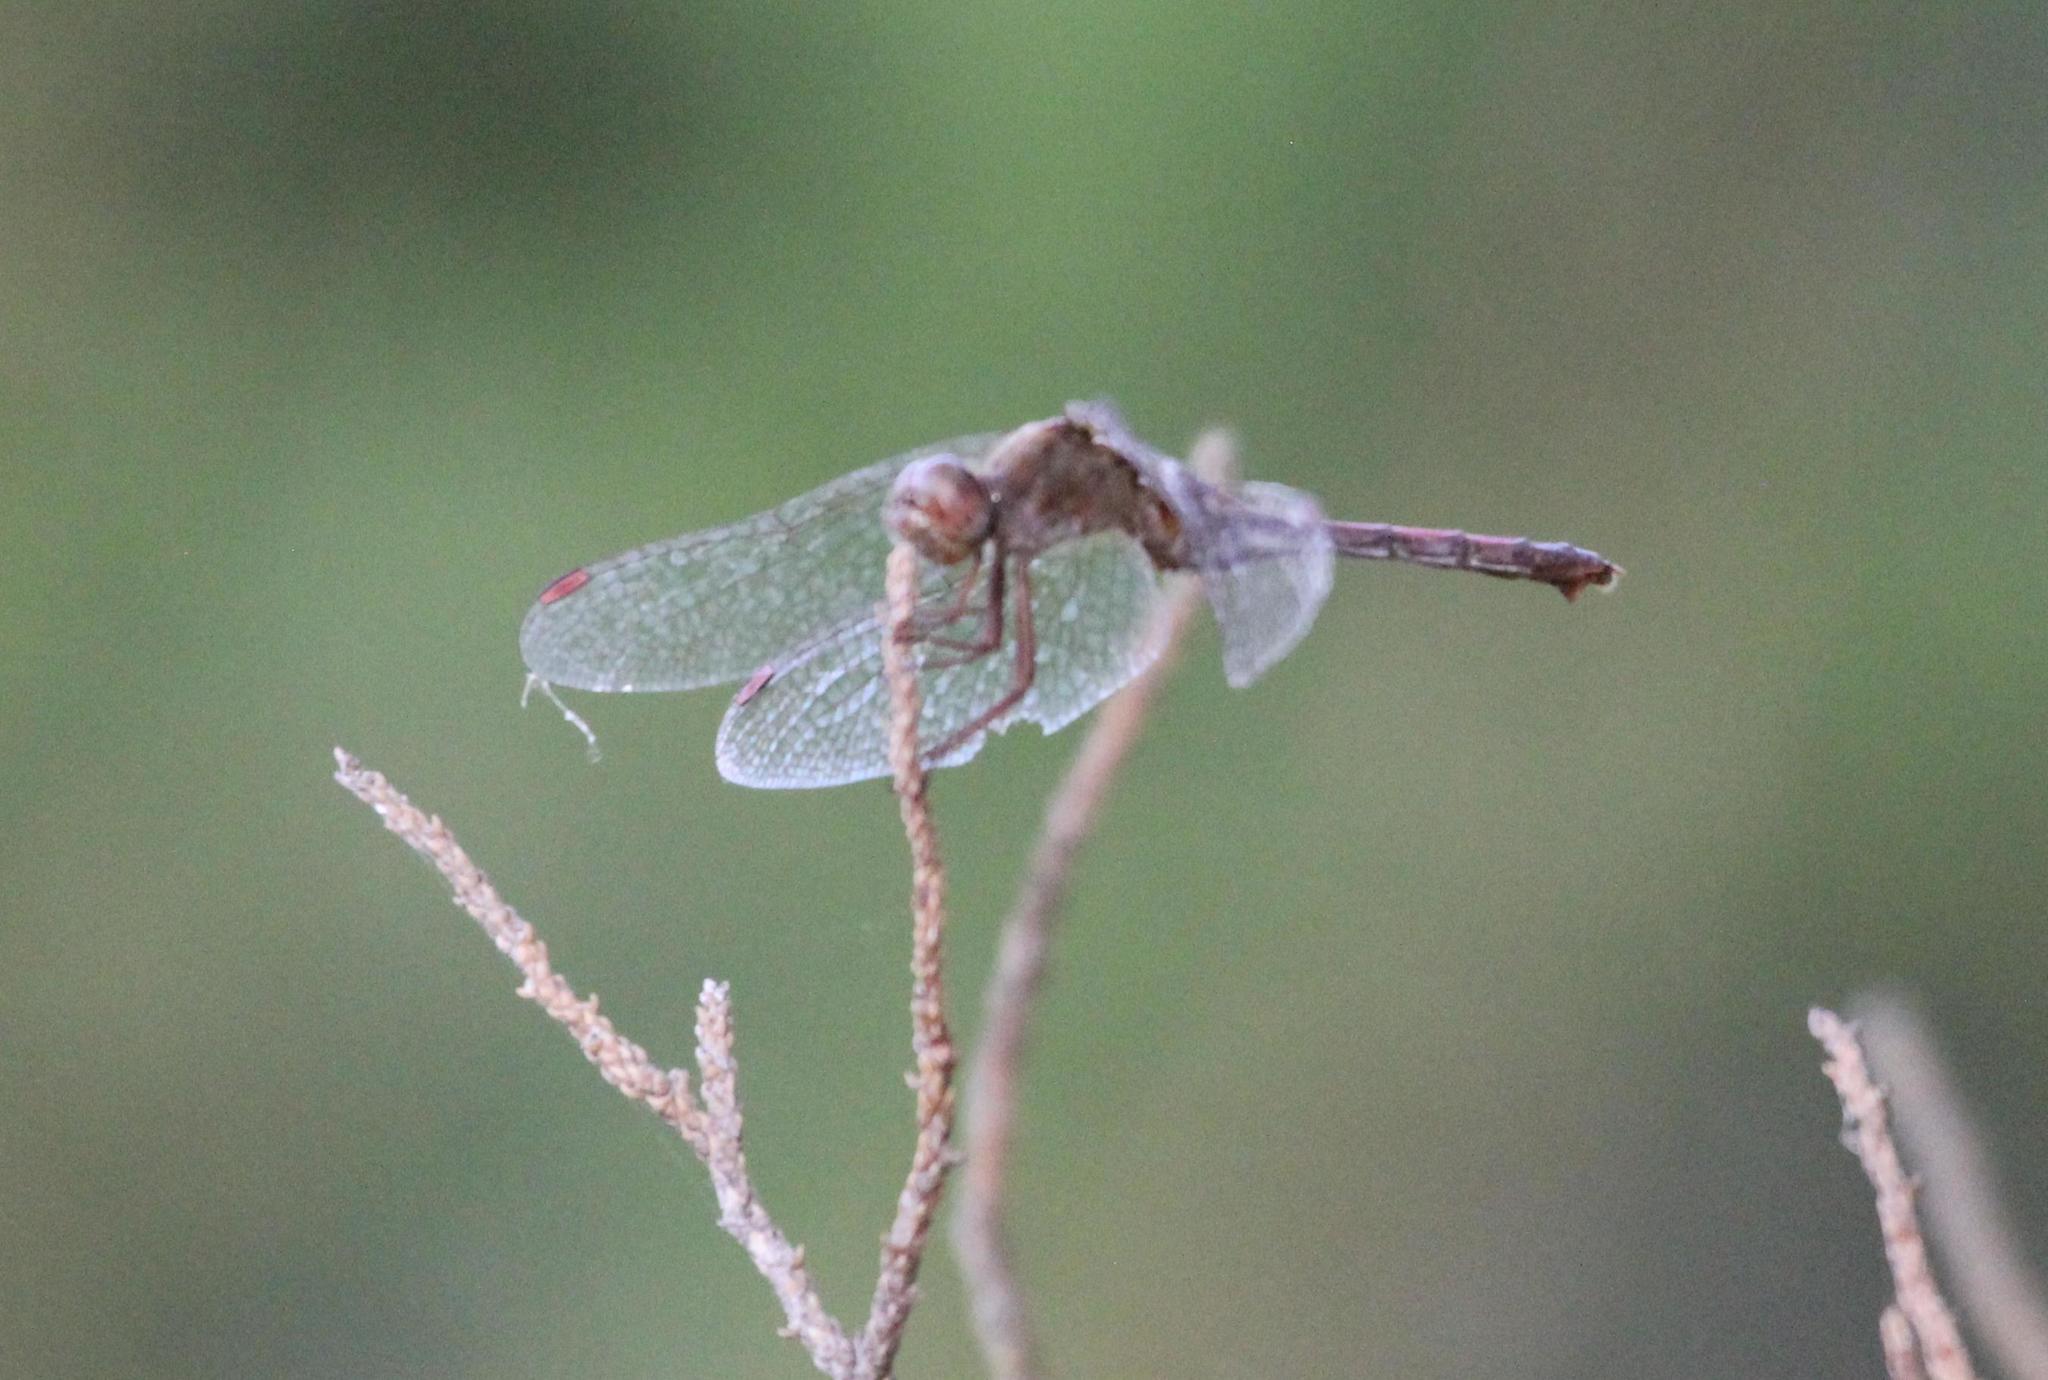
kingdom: Animalia
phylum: Arthropoda
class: Insecta
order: Odonata
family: Libellulidae
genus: Sympetrum
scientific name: Sympetrum vicinum
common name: Autumn meadowhawk
